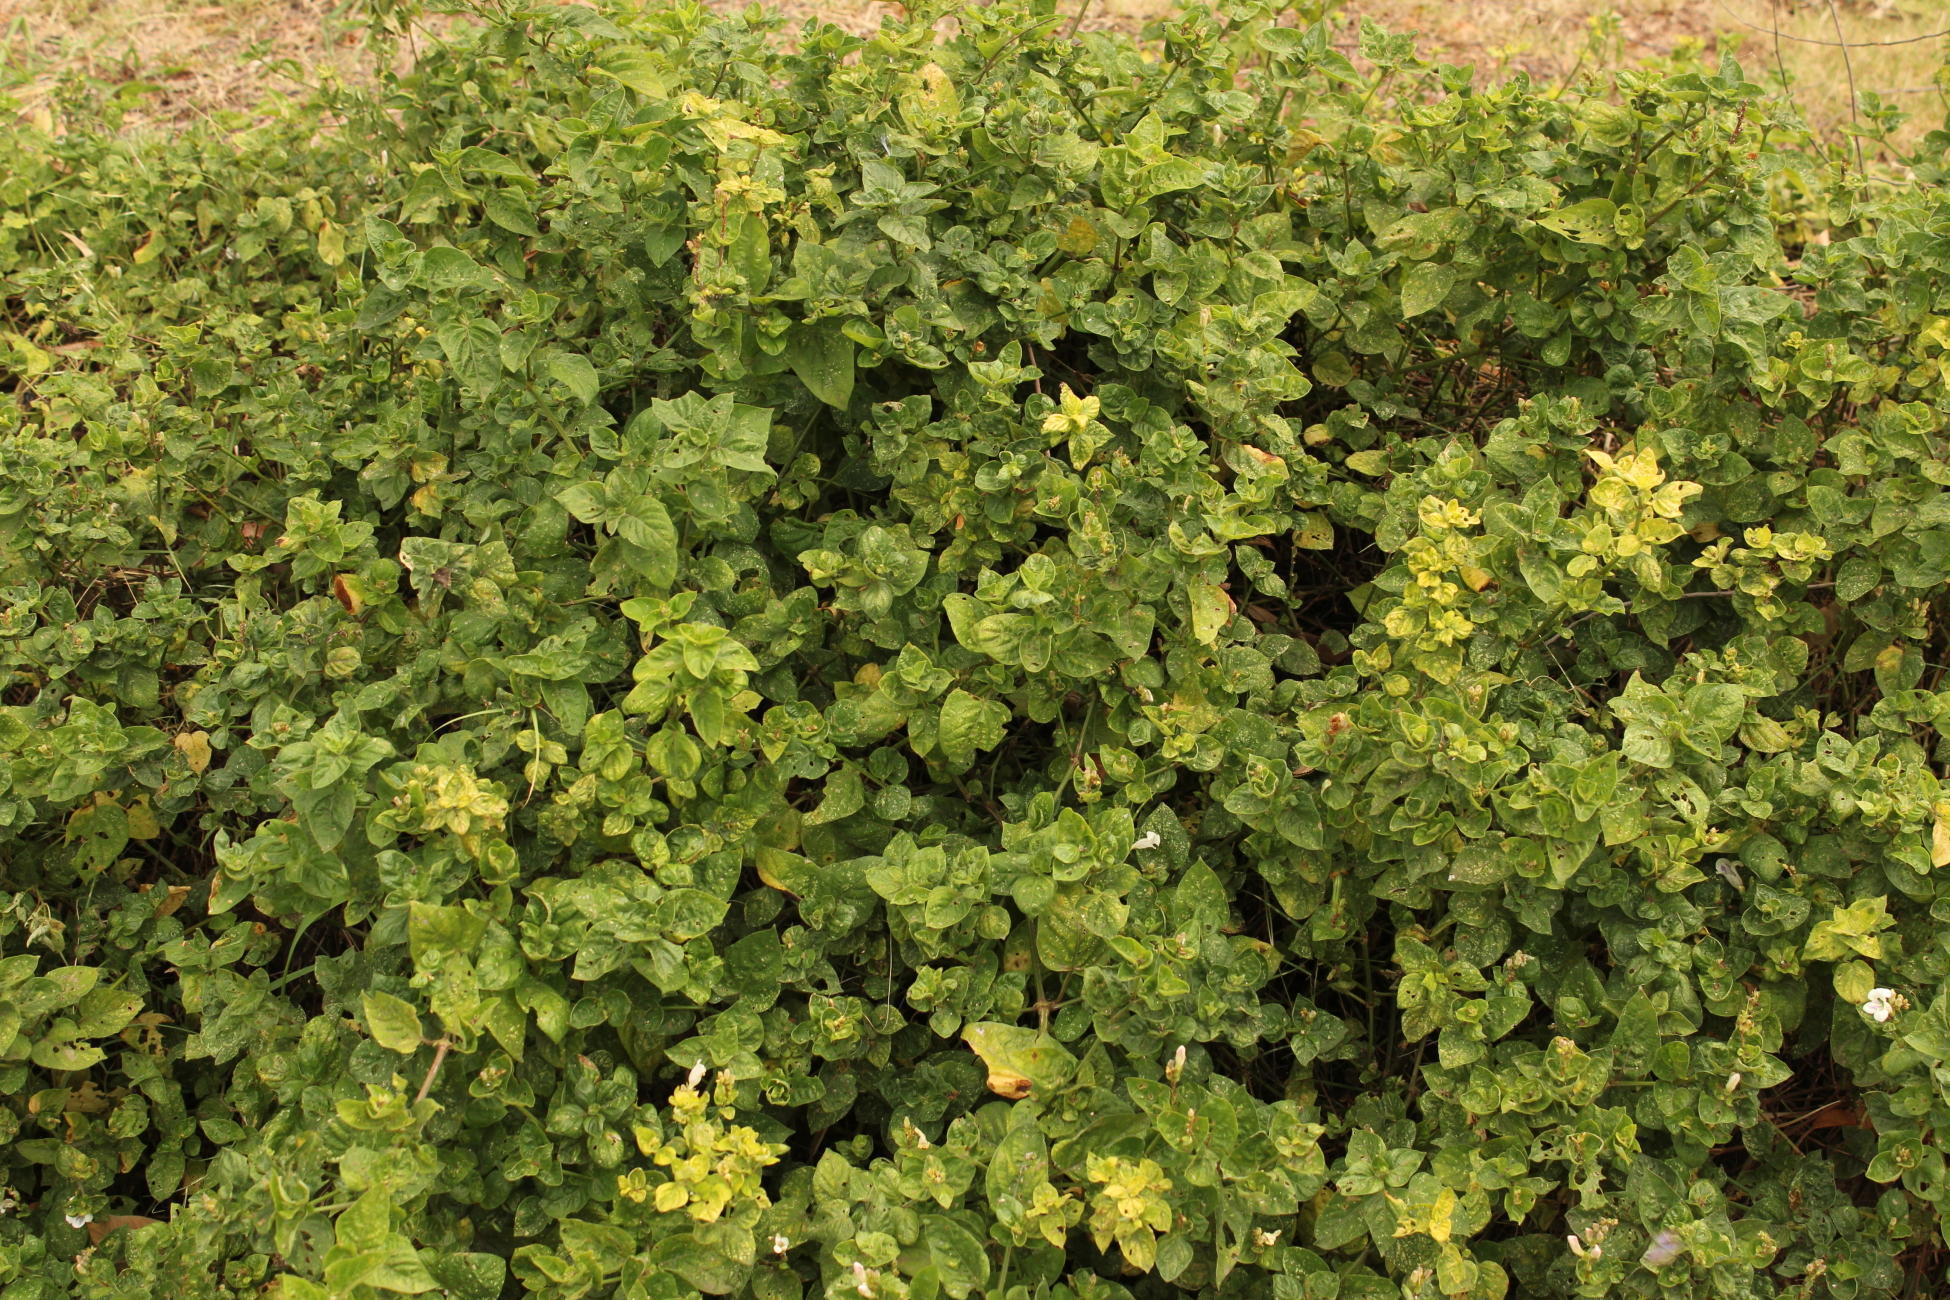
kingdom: Plantae
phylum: Tracheophyta
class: Magnoliopsida
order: Lamiales
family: Acanthaceae
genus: Asystasia
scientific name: Asystasia intrusa
